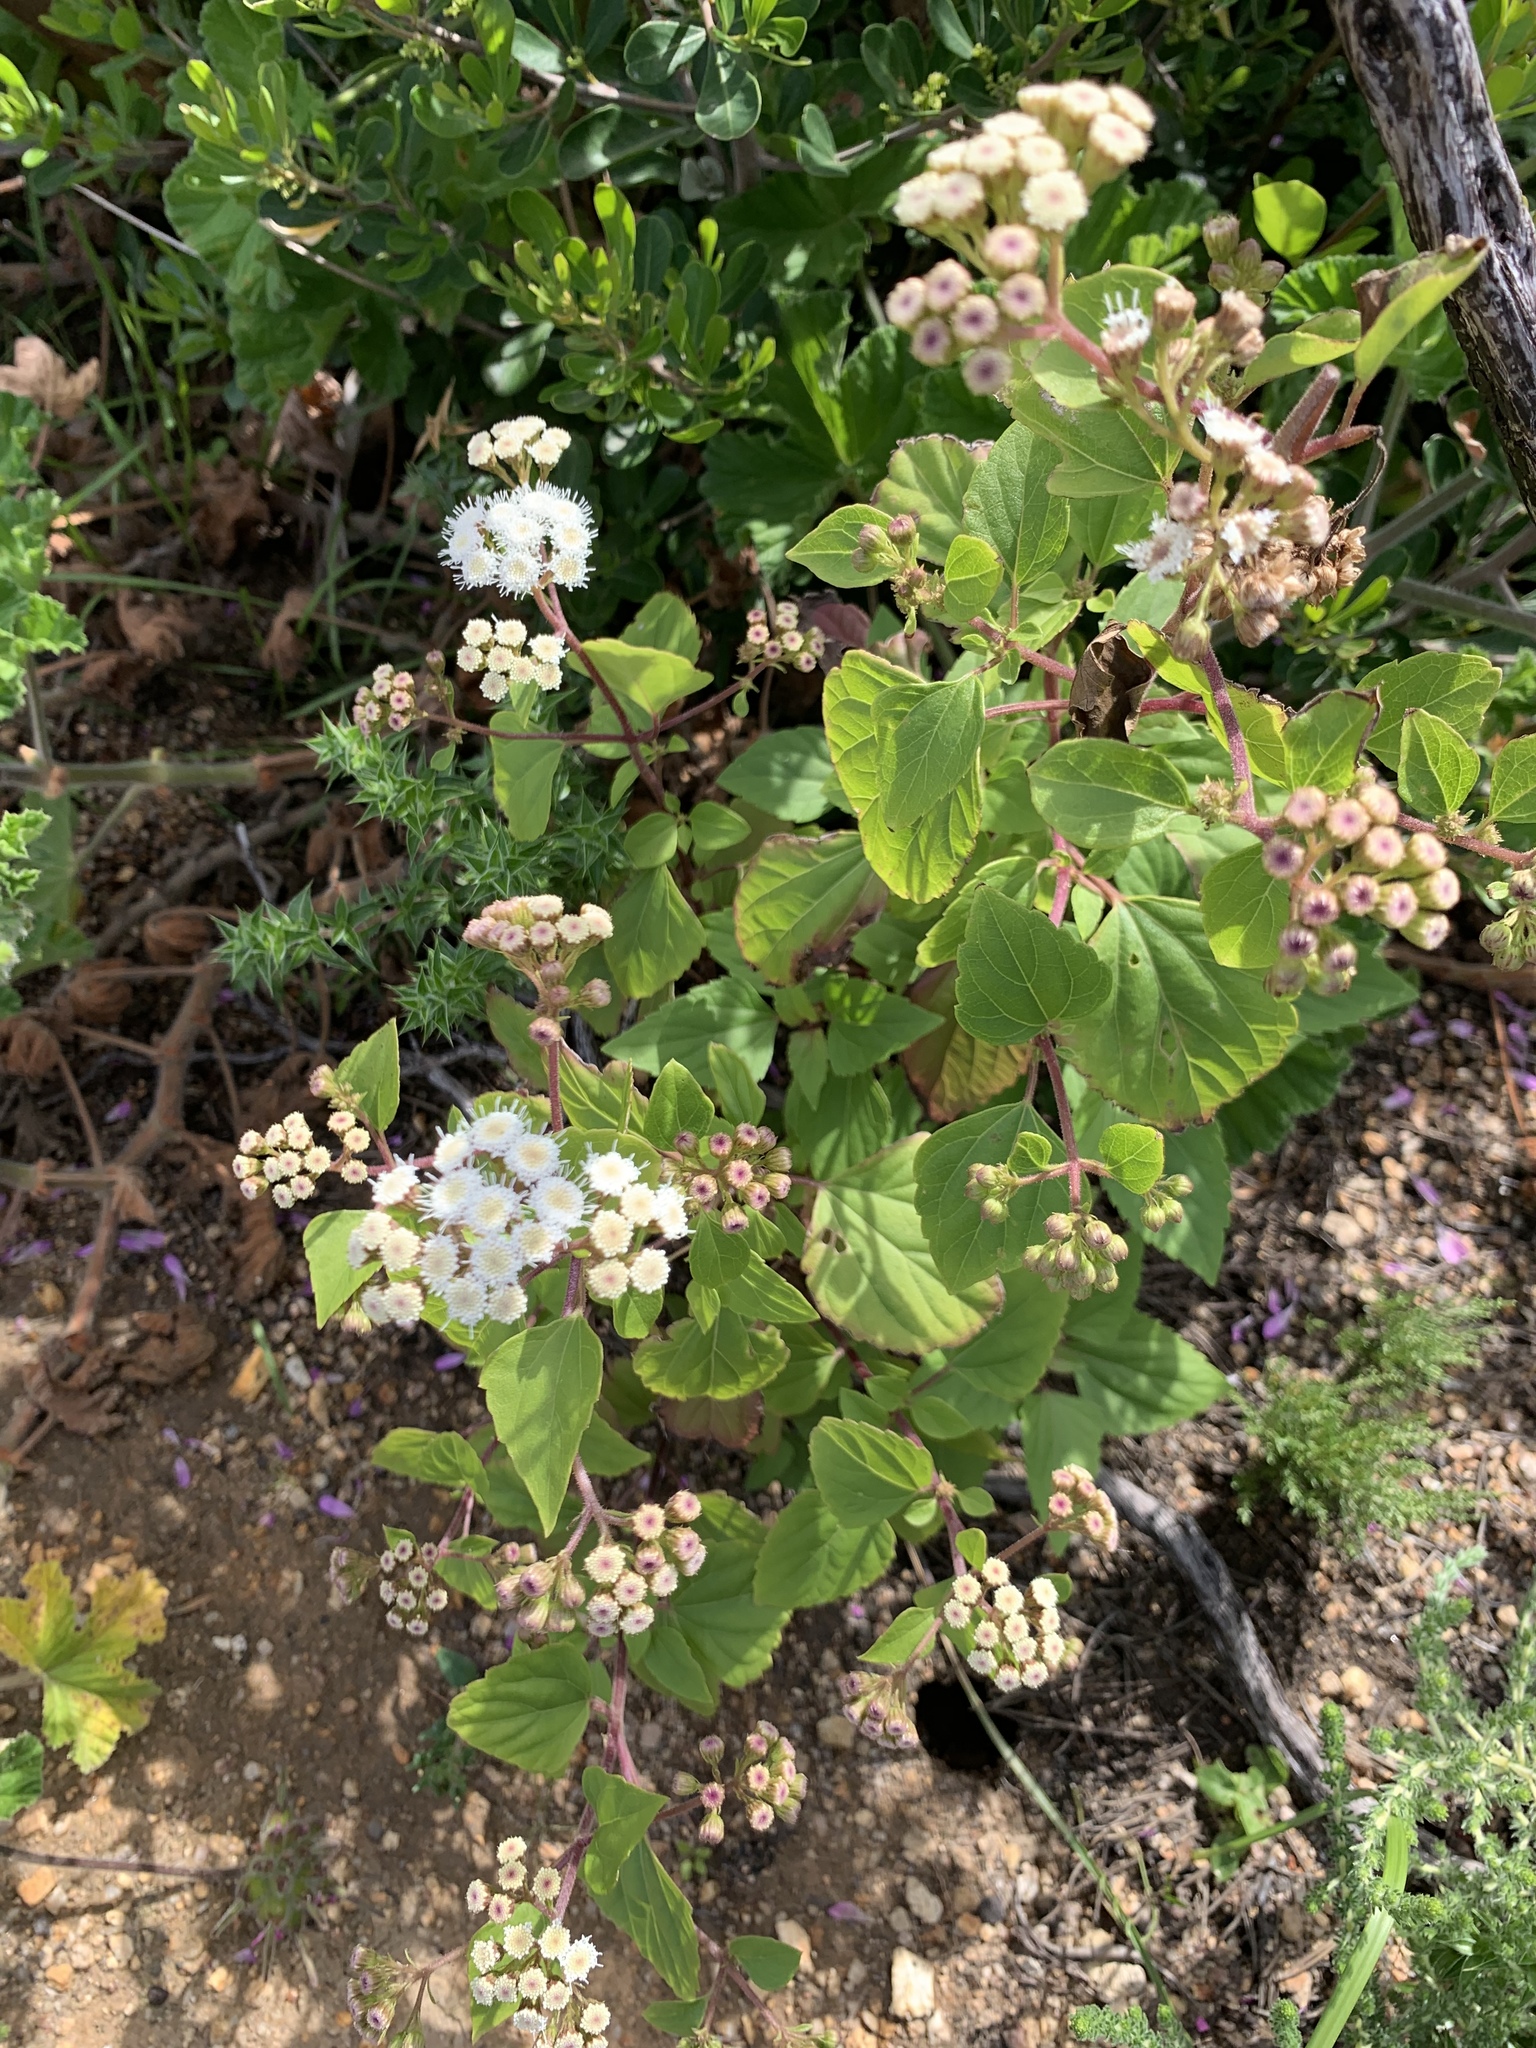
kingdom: Plantae
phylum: Tracheophyta
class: Magnoliopsida
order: Asterales
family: Asteraceae
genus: Ageratina
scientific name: Ageratina adenophora
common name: Sticky snakeroot
